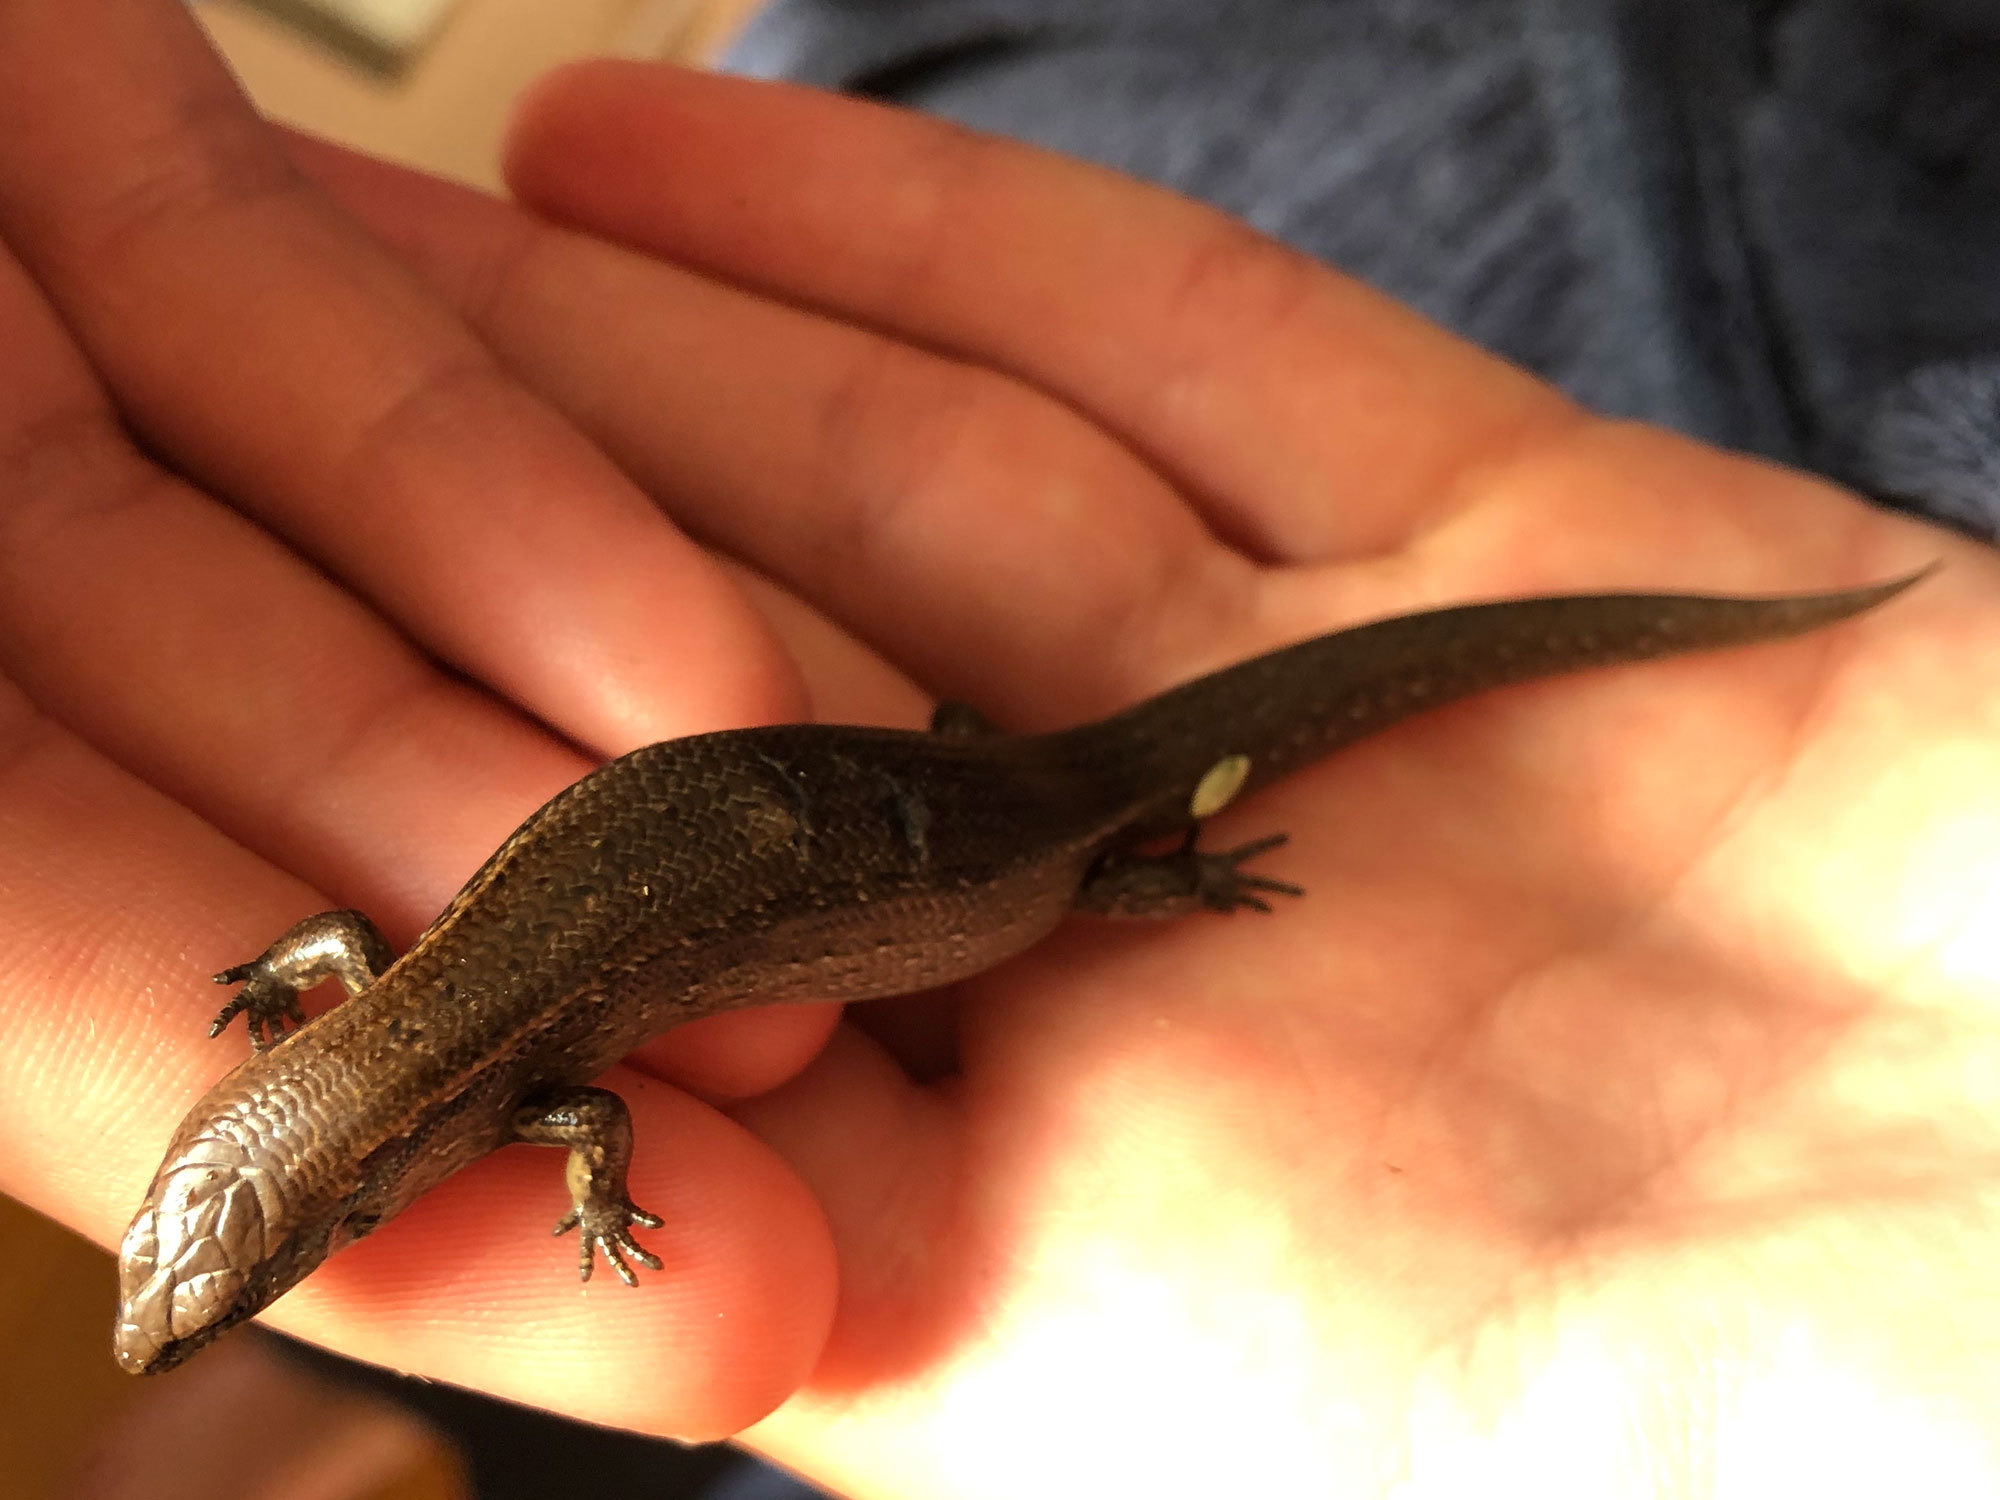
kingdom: Animalia
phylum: Chordata
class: Squamata
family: Scincidae
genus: Oligosoma
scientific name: Oligosoma aeneum
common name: Copper skink
